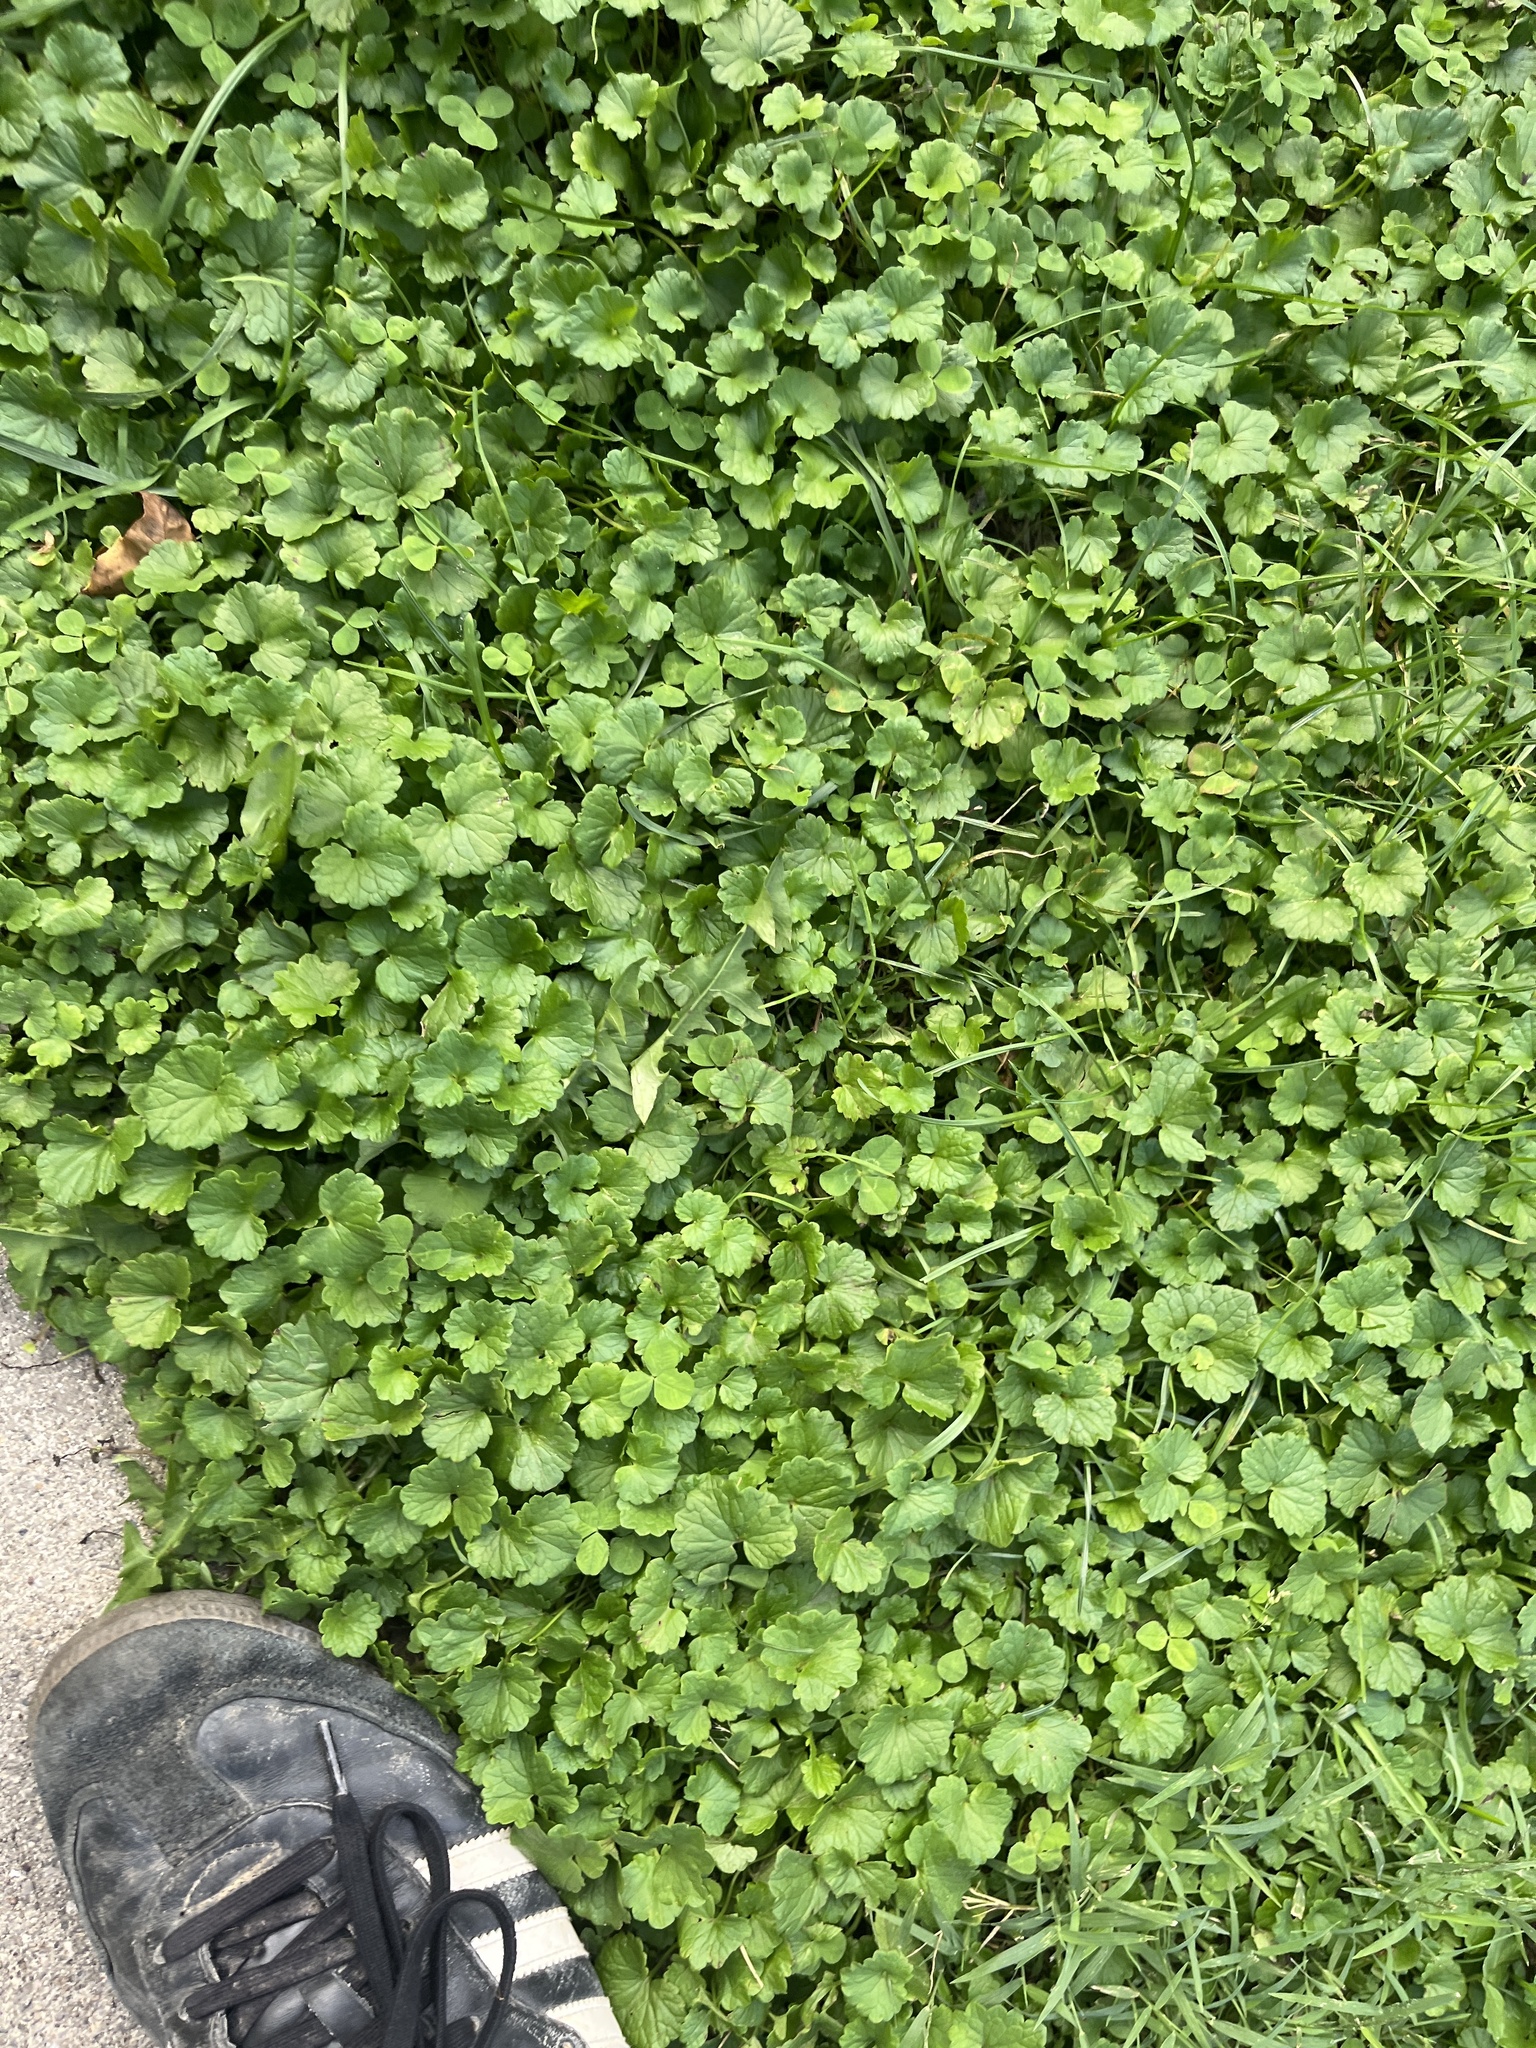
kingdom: Plantae
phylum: Tracheophyta
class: Magnoliopsida
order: Lamiales
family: Lamiaceae
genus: Glechoma
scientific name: Glechoma hederacea
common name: Ground ivy
